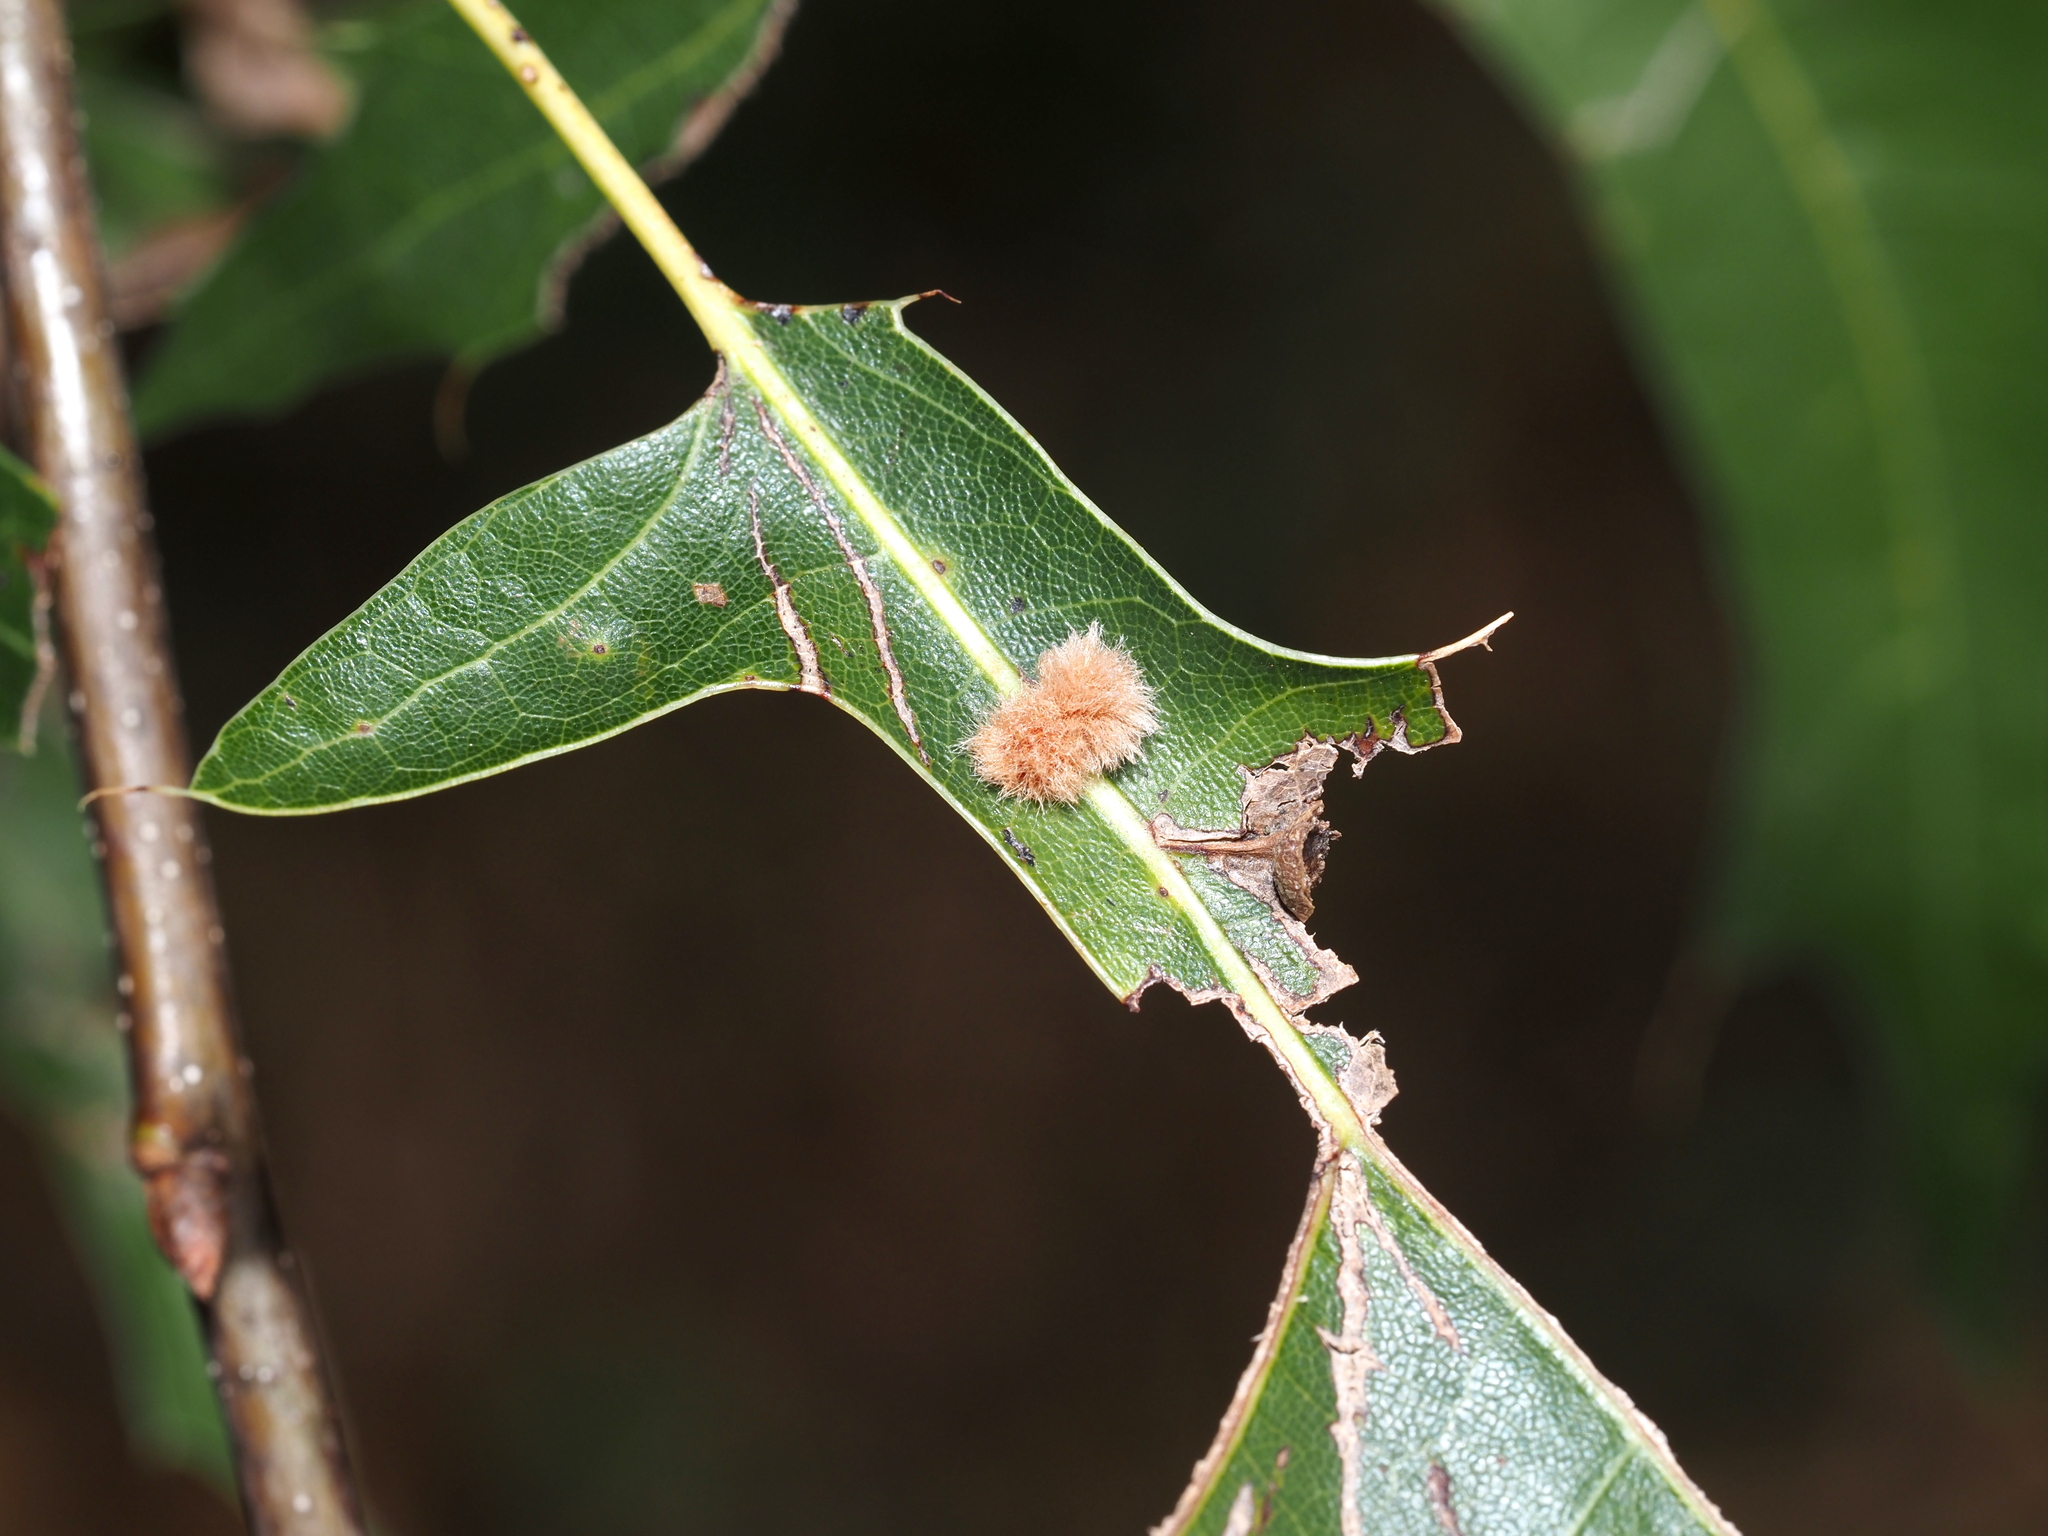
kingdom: Animalia
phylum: Arthropoda
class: Insecta
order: Hymenoptera
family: Cynipidae
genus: Callirhytis
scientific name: Callirhytis
